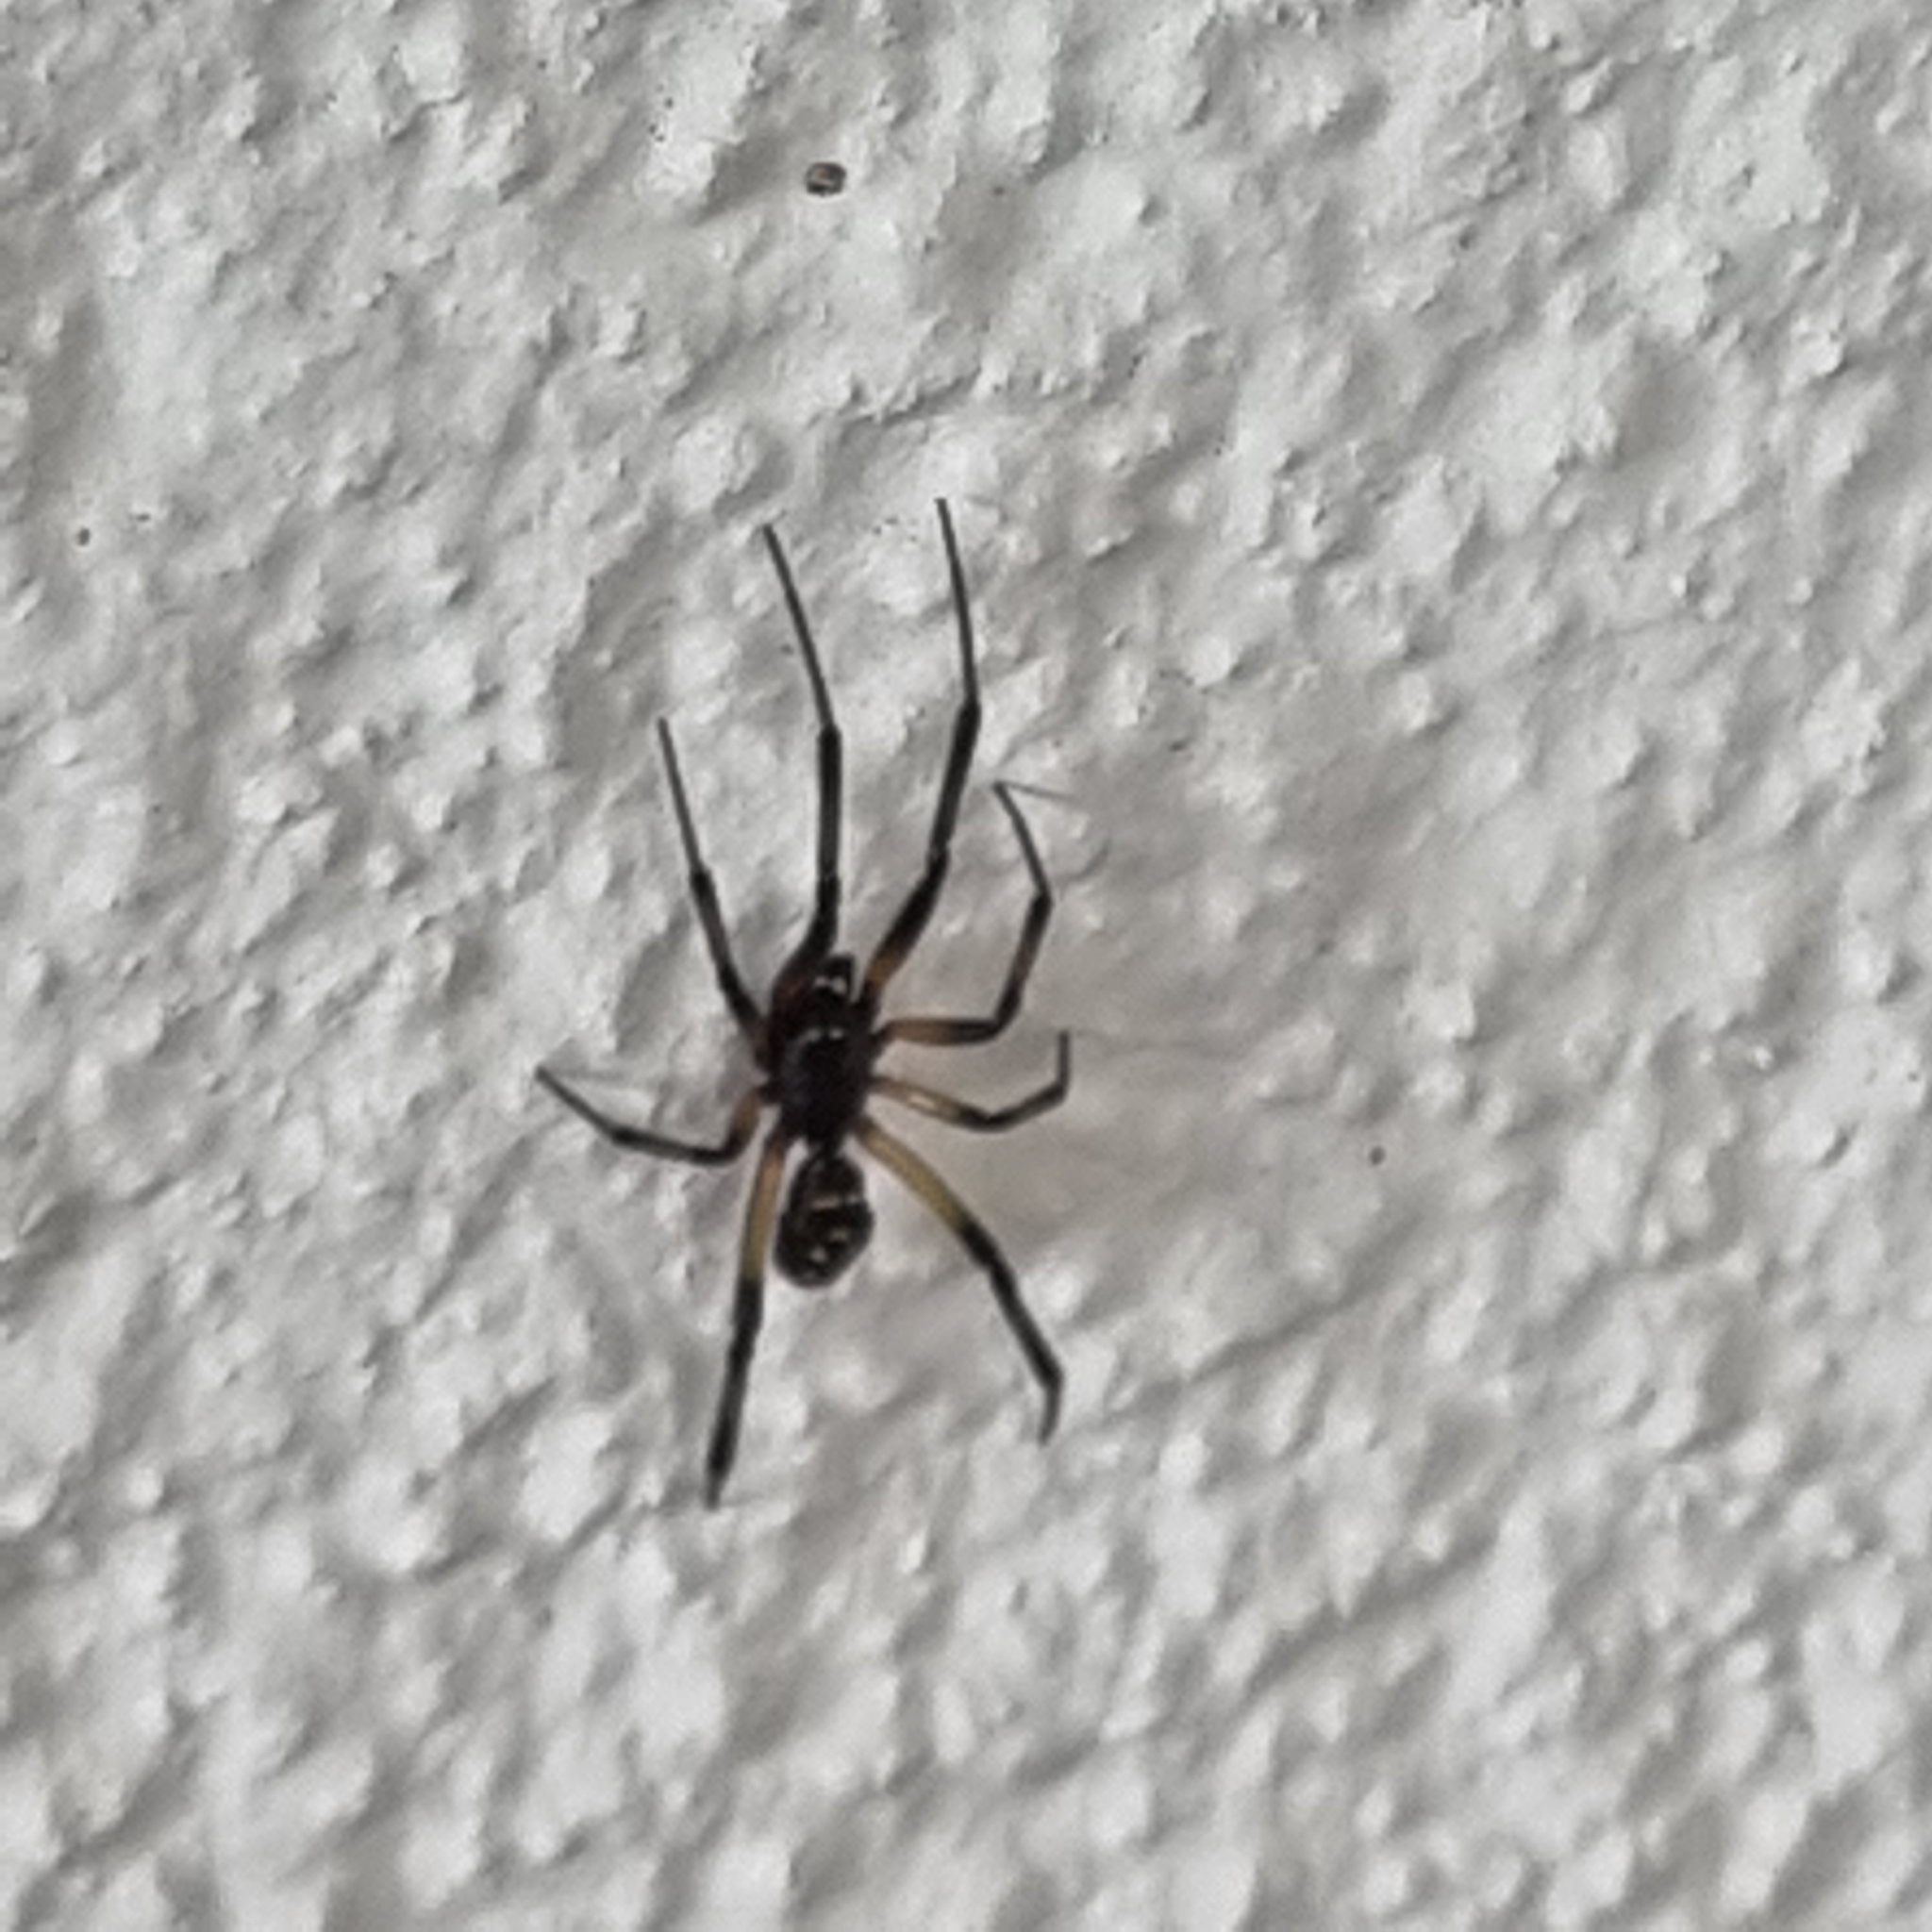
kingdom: Animalia
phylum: Arthropoda
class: Arachnida
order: Araneae
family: Theridiidae
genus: Steatoda
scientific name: Steatoda capensis
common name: Cobweb weaver
